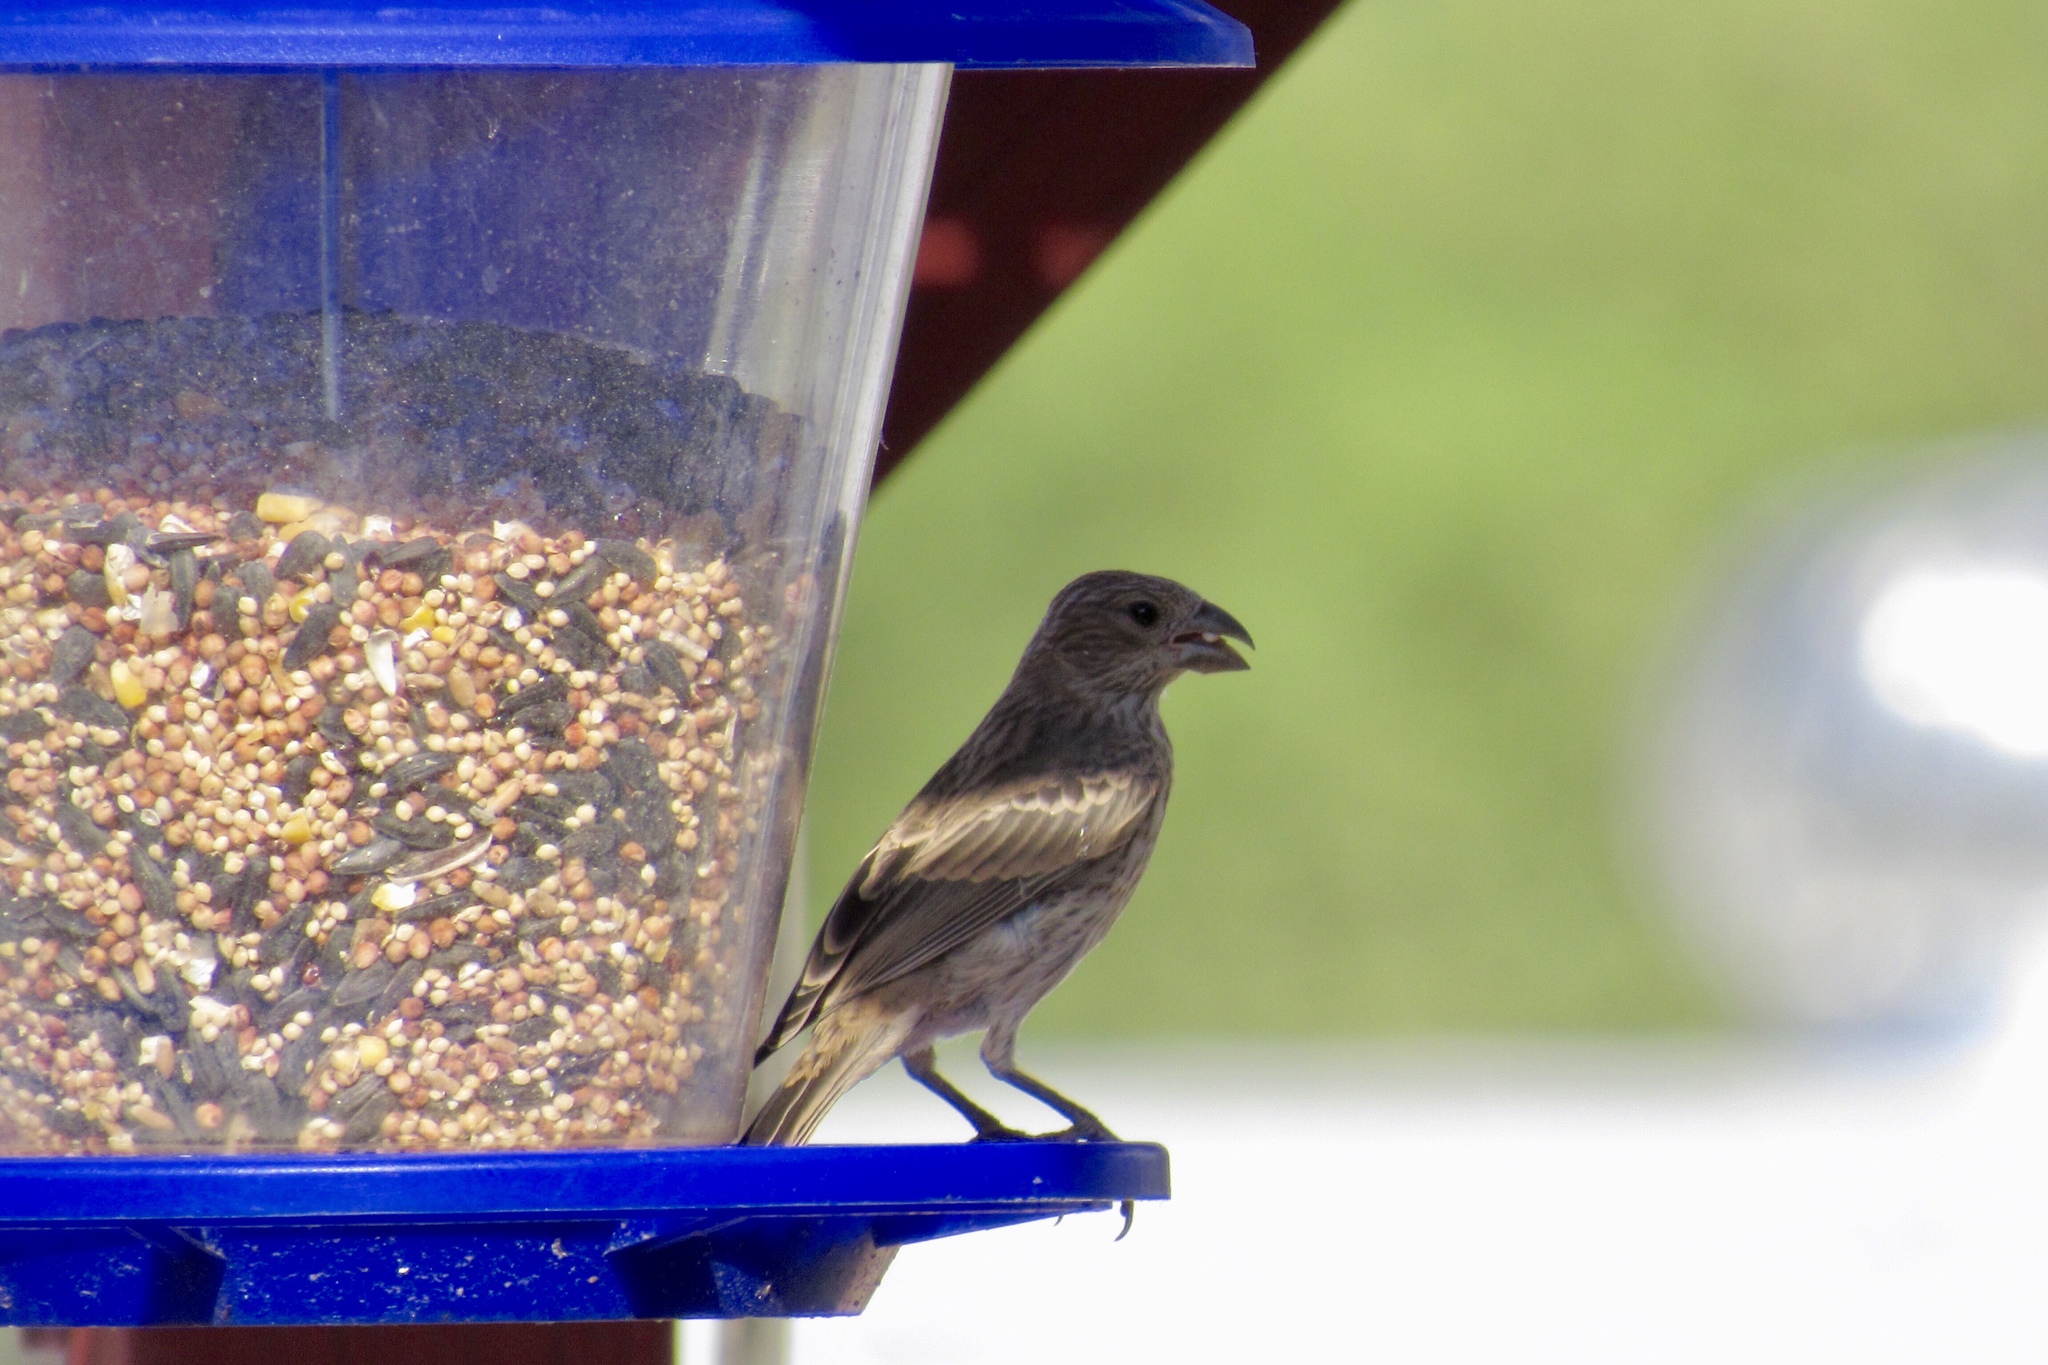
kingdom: Animalia
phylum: Chordata
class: Aves
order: Passeriformes
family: Fringillidae
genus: Haemorhous
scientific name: Haemorhous mexicanus
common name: House finch
